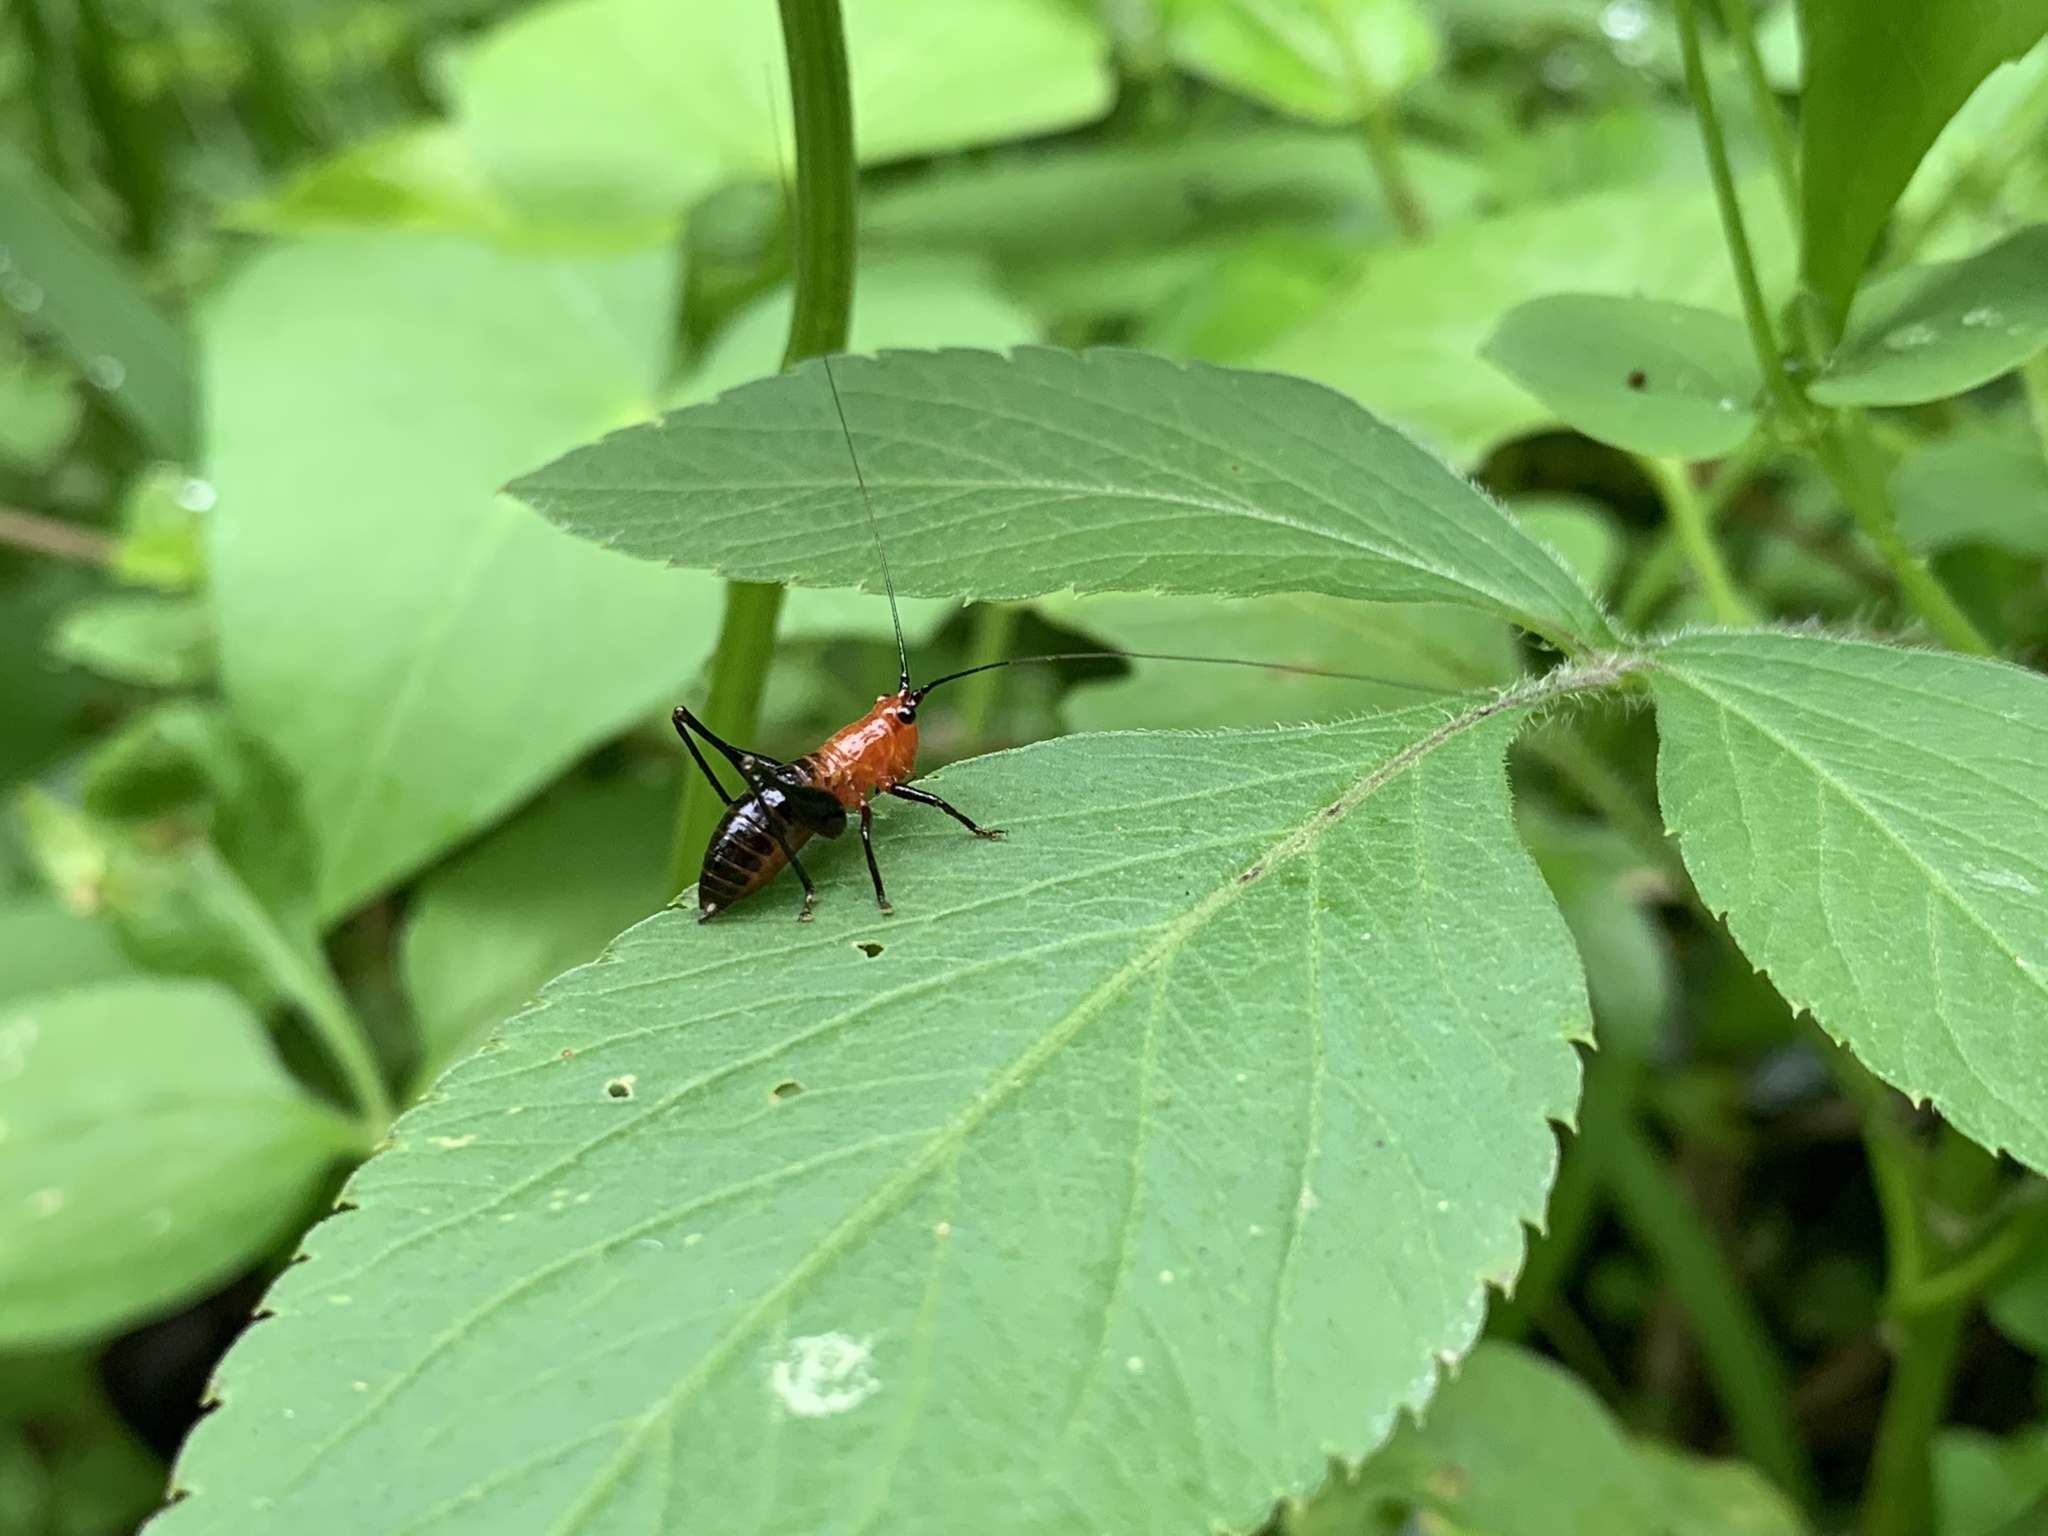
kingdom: Animalia
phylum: Arthropoda
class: Insecta
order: Orthoptera
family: Tettigoniidae
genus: Conocephalus
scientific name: Conocephalus melaenus
